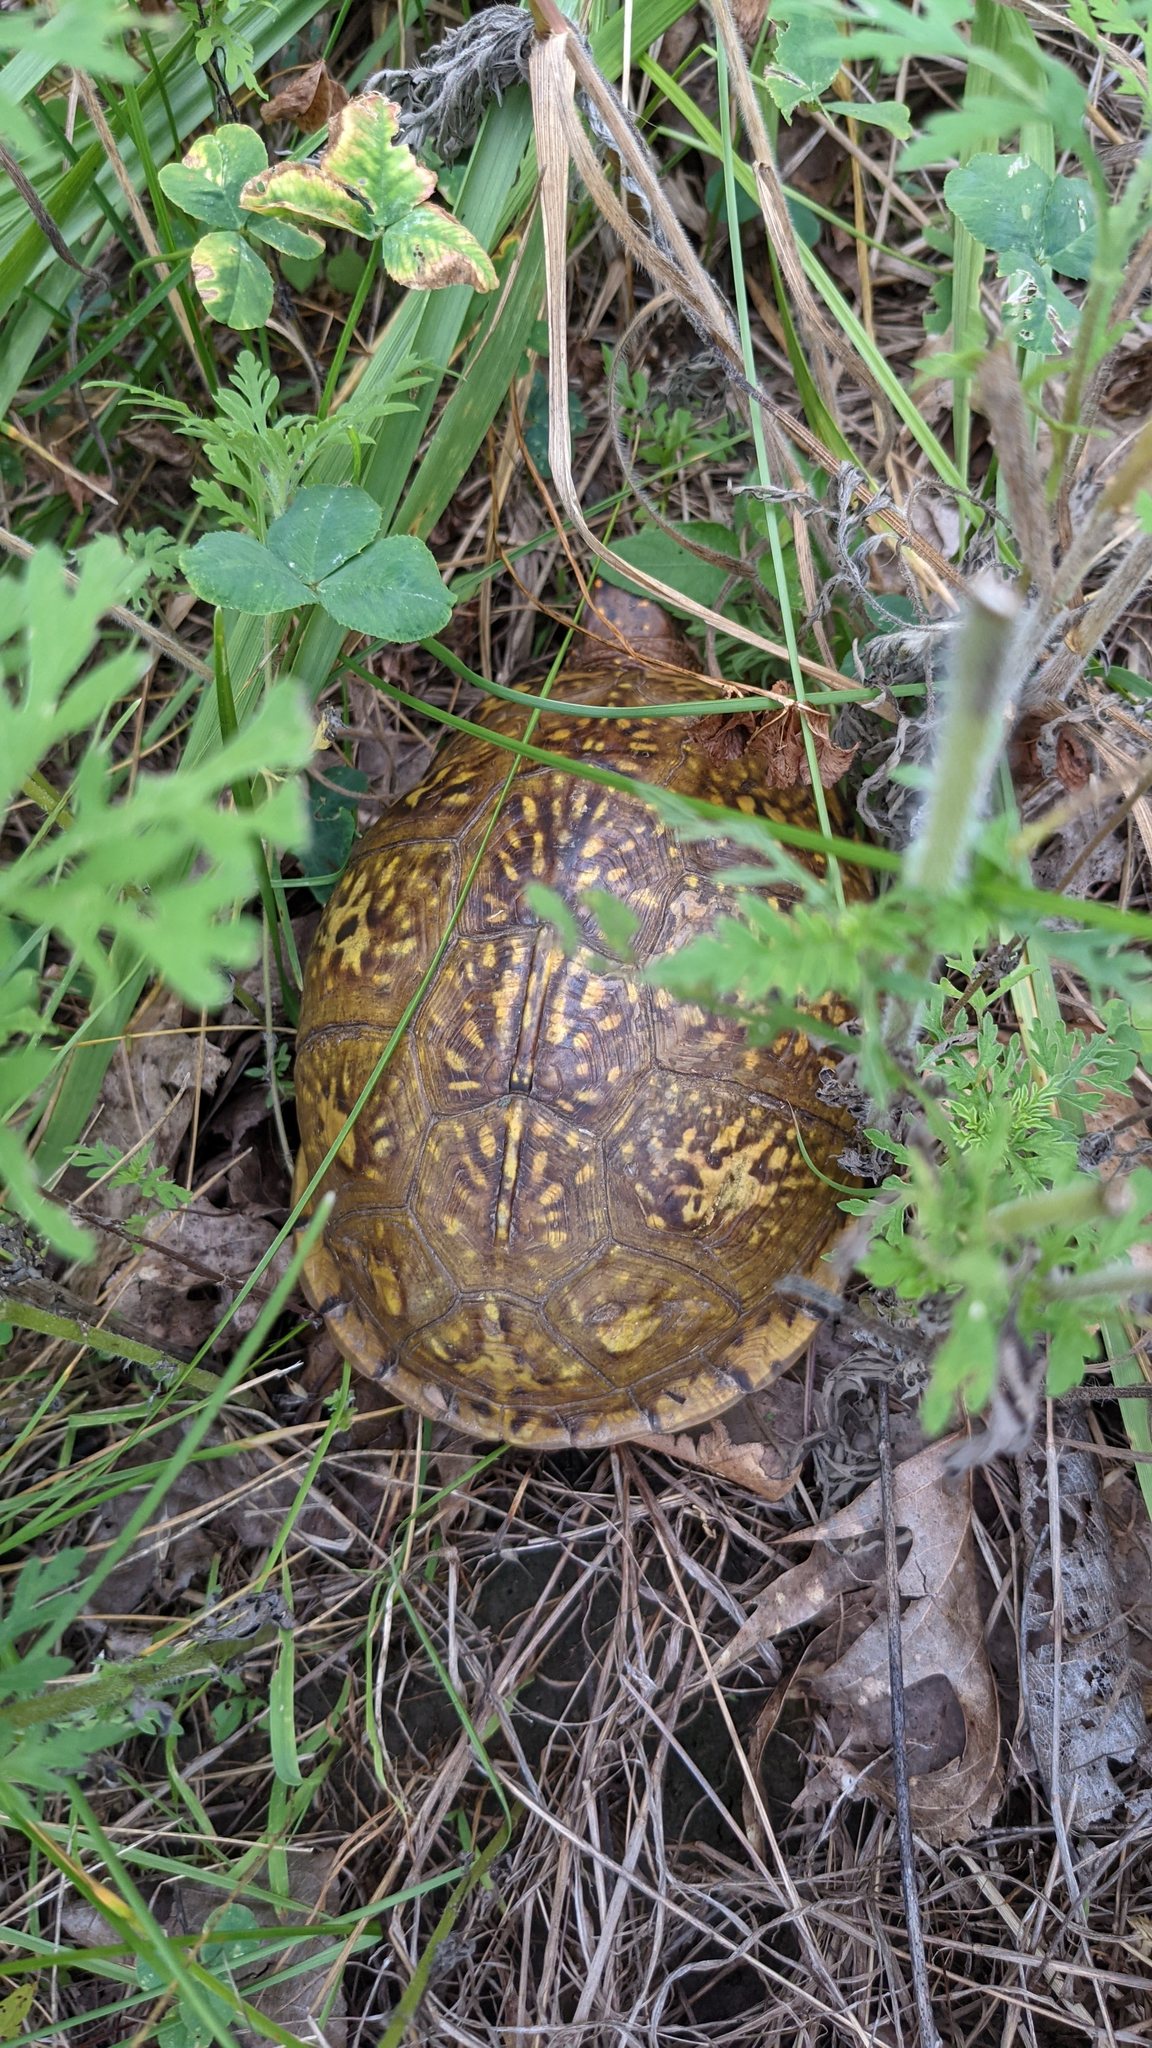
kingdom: Animalia
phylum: Chordata
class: Testudines
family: Emydidae
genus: Terrapene
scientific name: Terrapene carolina
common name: Common box turtle
